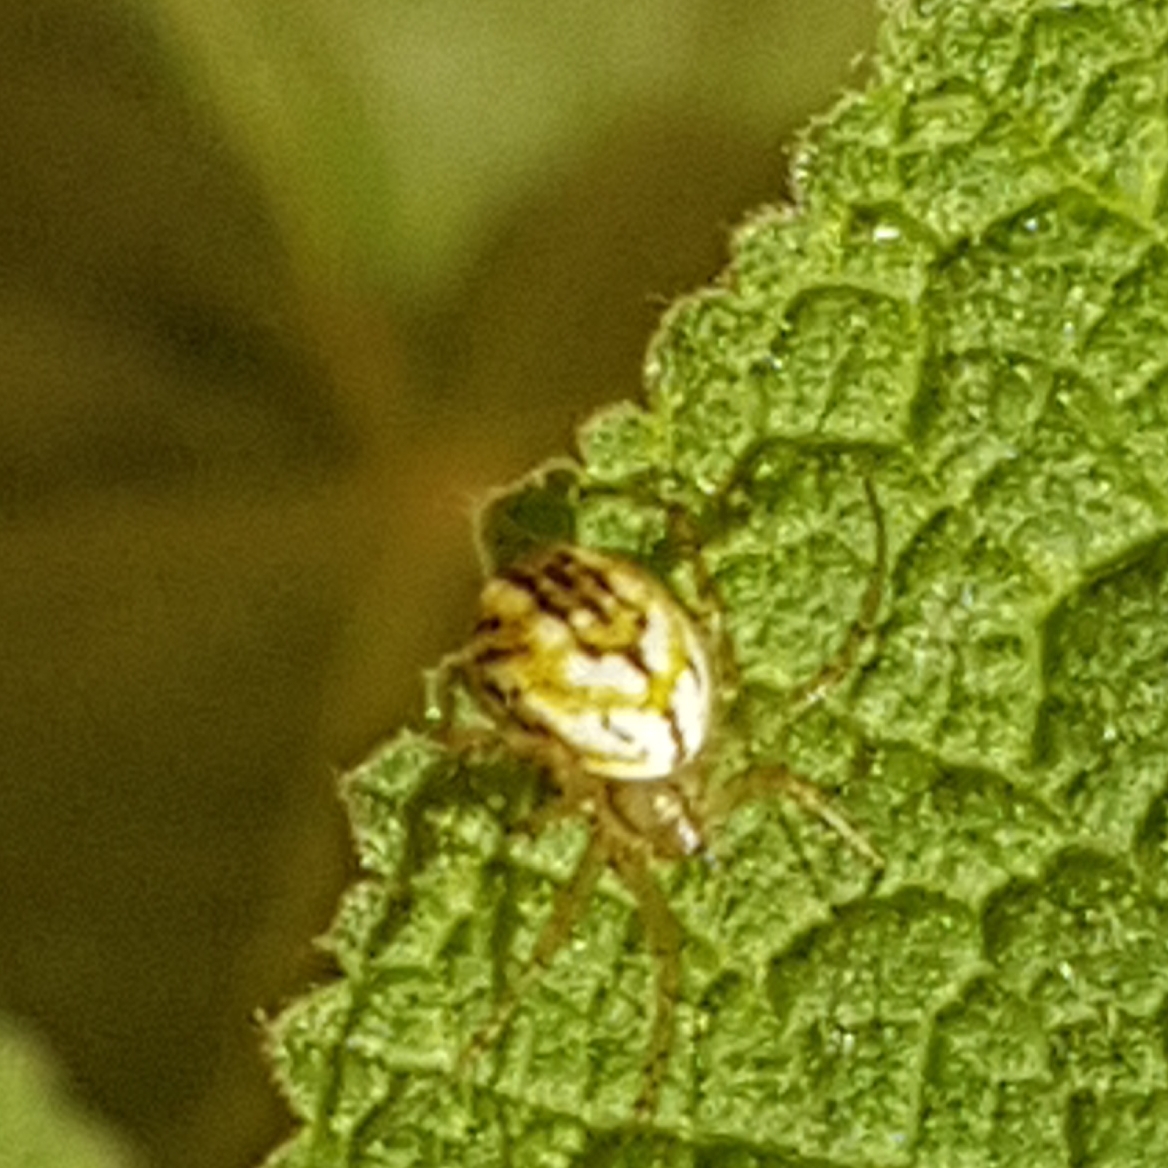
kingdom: Animalia
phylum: Arthropoda
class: Arachnida
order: Araneae
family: Araneidae
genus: Mangora
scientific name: Mangora acalypha
